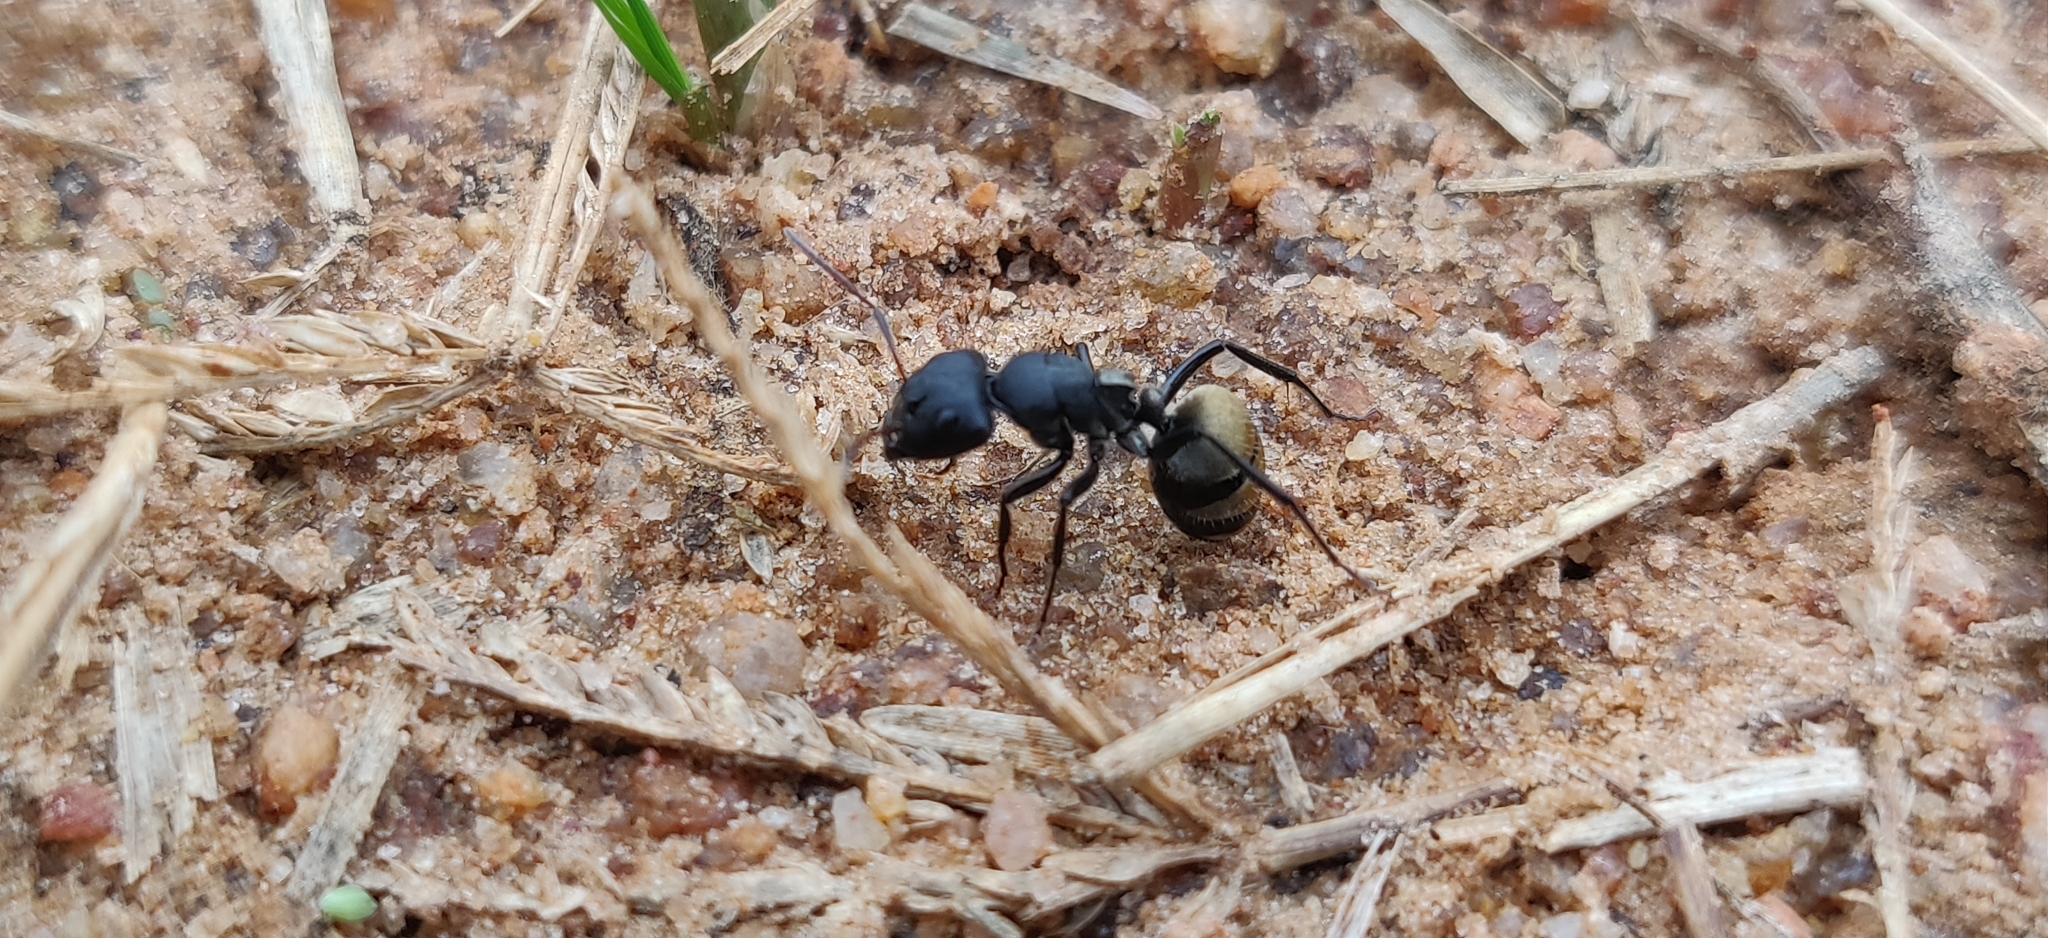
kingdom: Animalia
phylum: Arthropoda
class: Insecta
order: Hymenoptera
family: Formicidae
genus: Camponotus
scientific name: Camponotus sericeus
